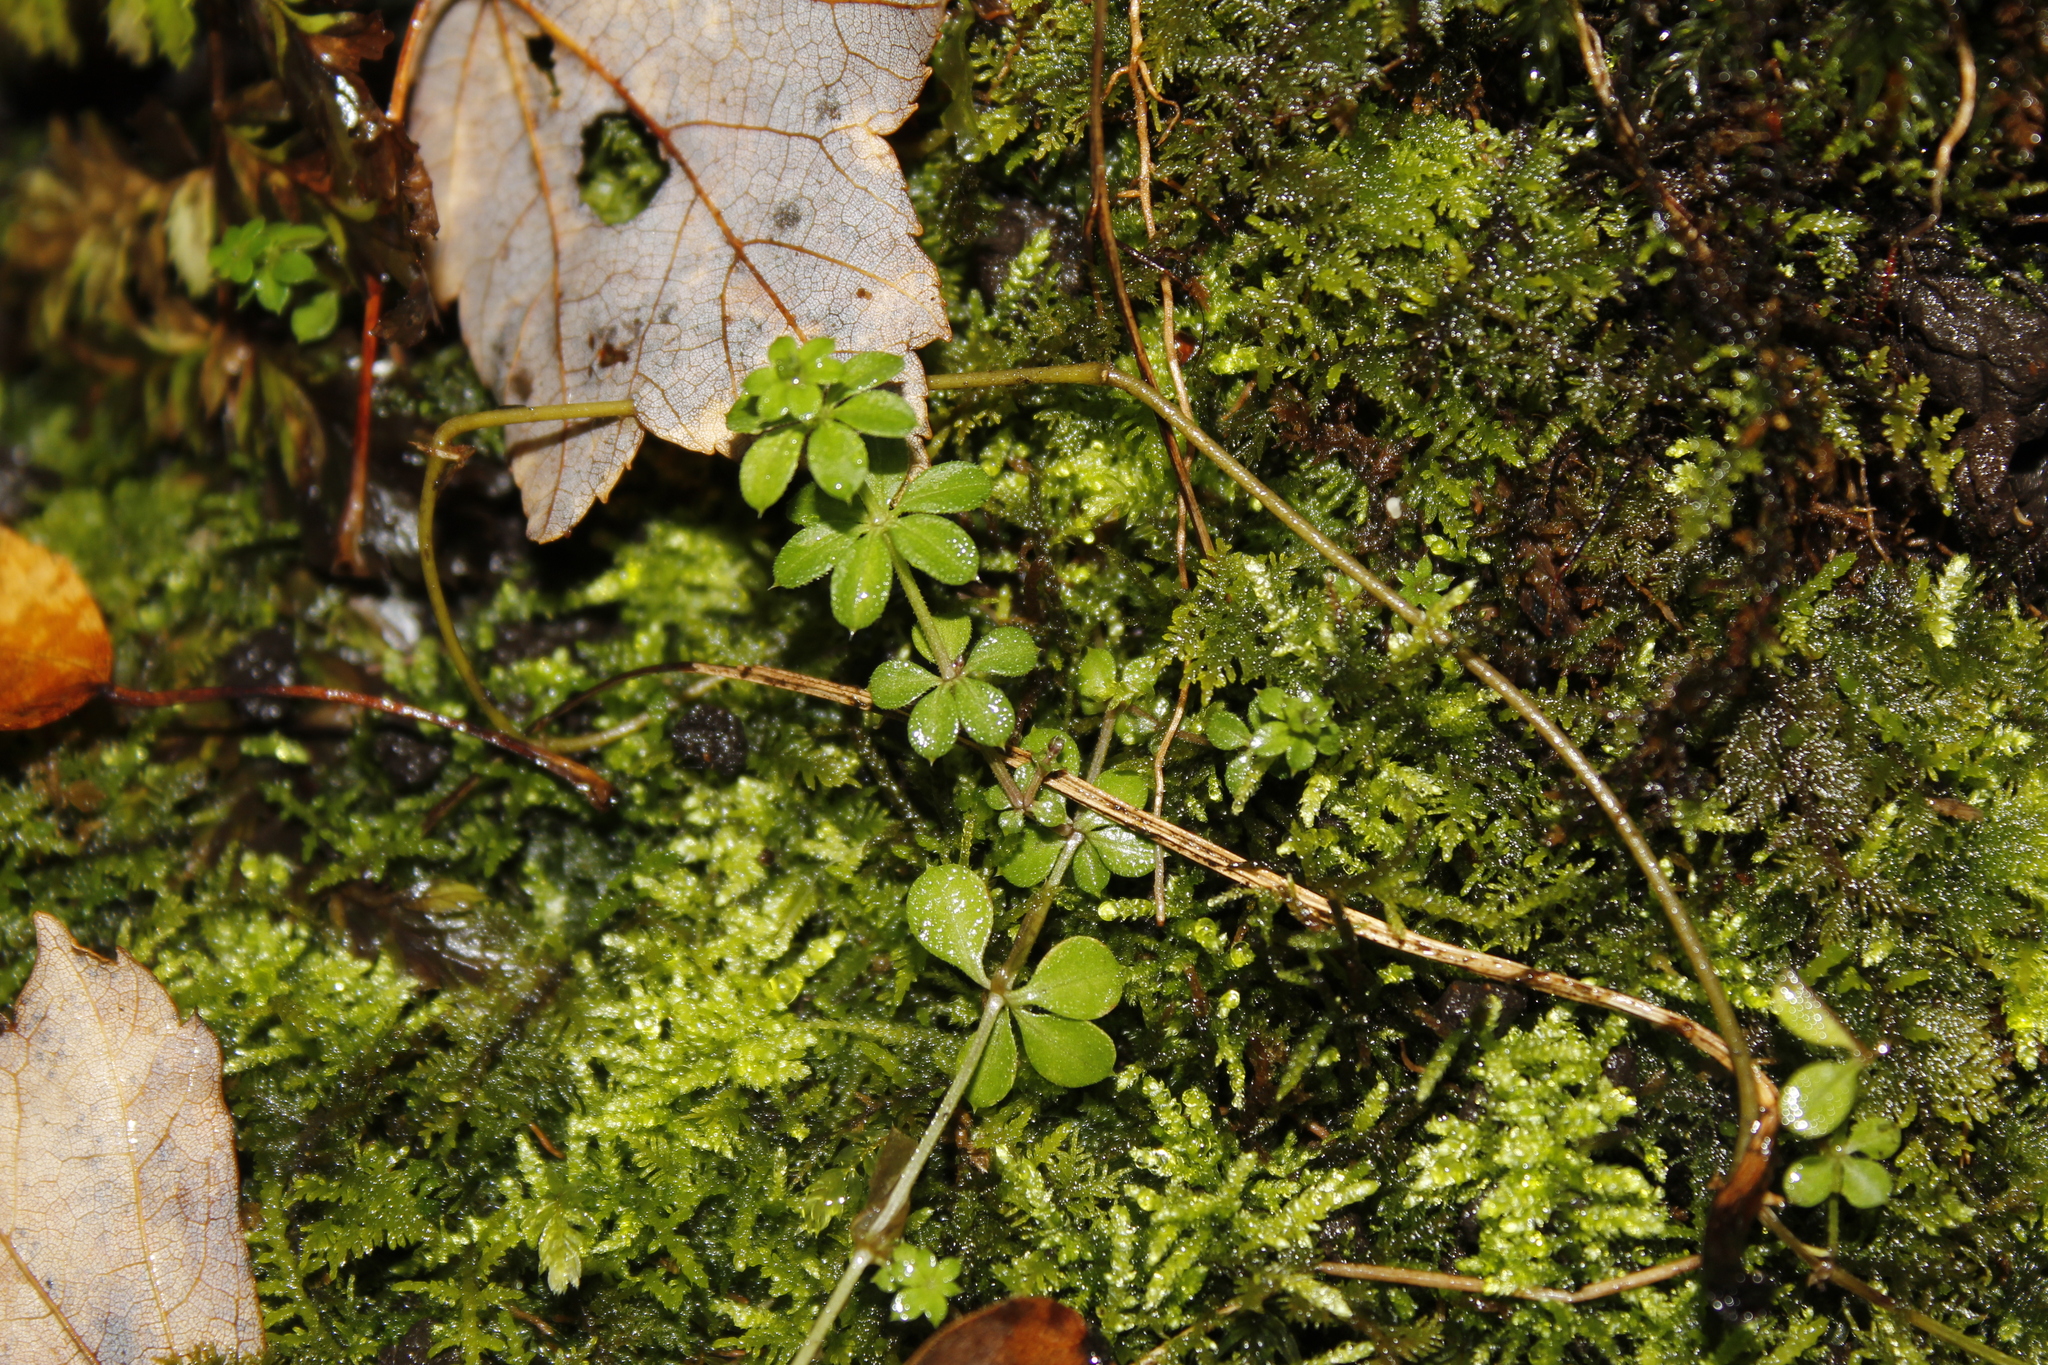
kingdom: Plantae
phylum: Tracheophyta
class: Magnoliopsida
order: Gentianales
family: Rubiaceae
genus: Galium
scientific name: Galium triflorum
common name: Fragrant bedstraw
